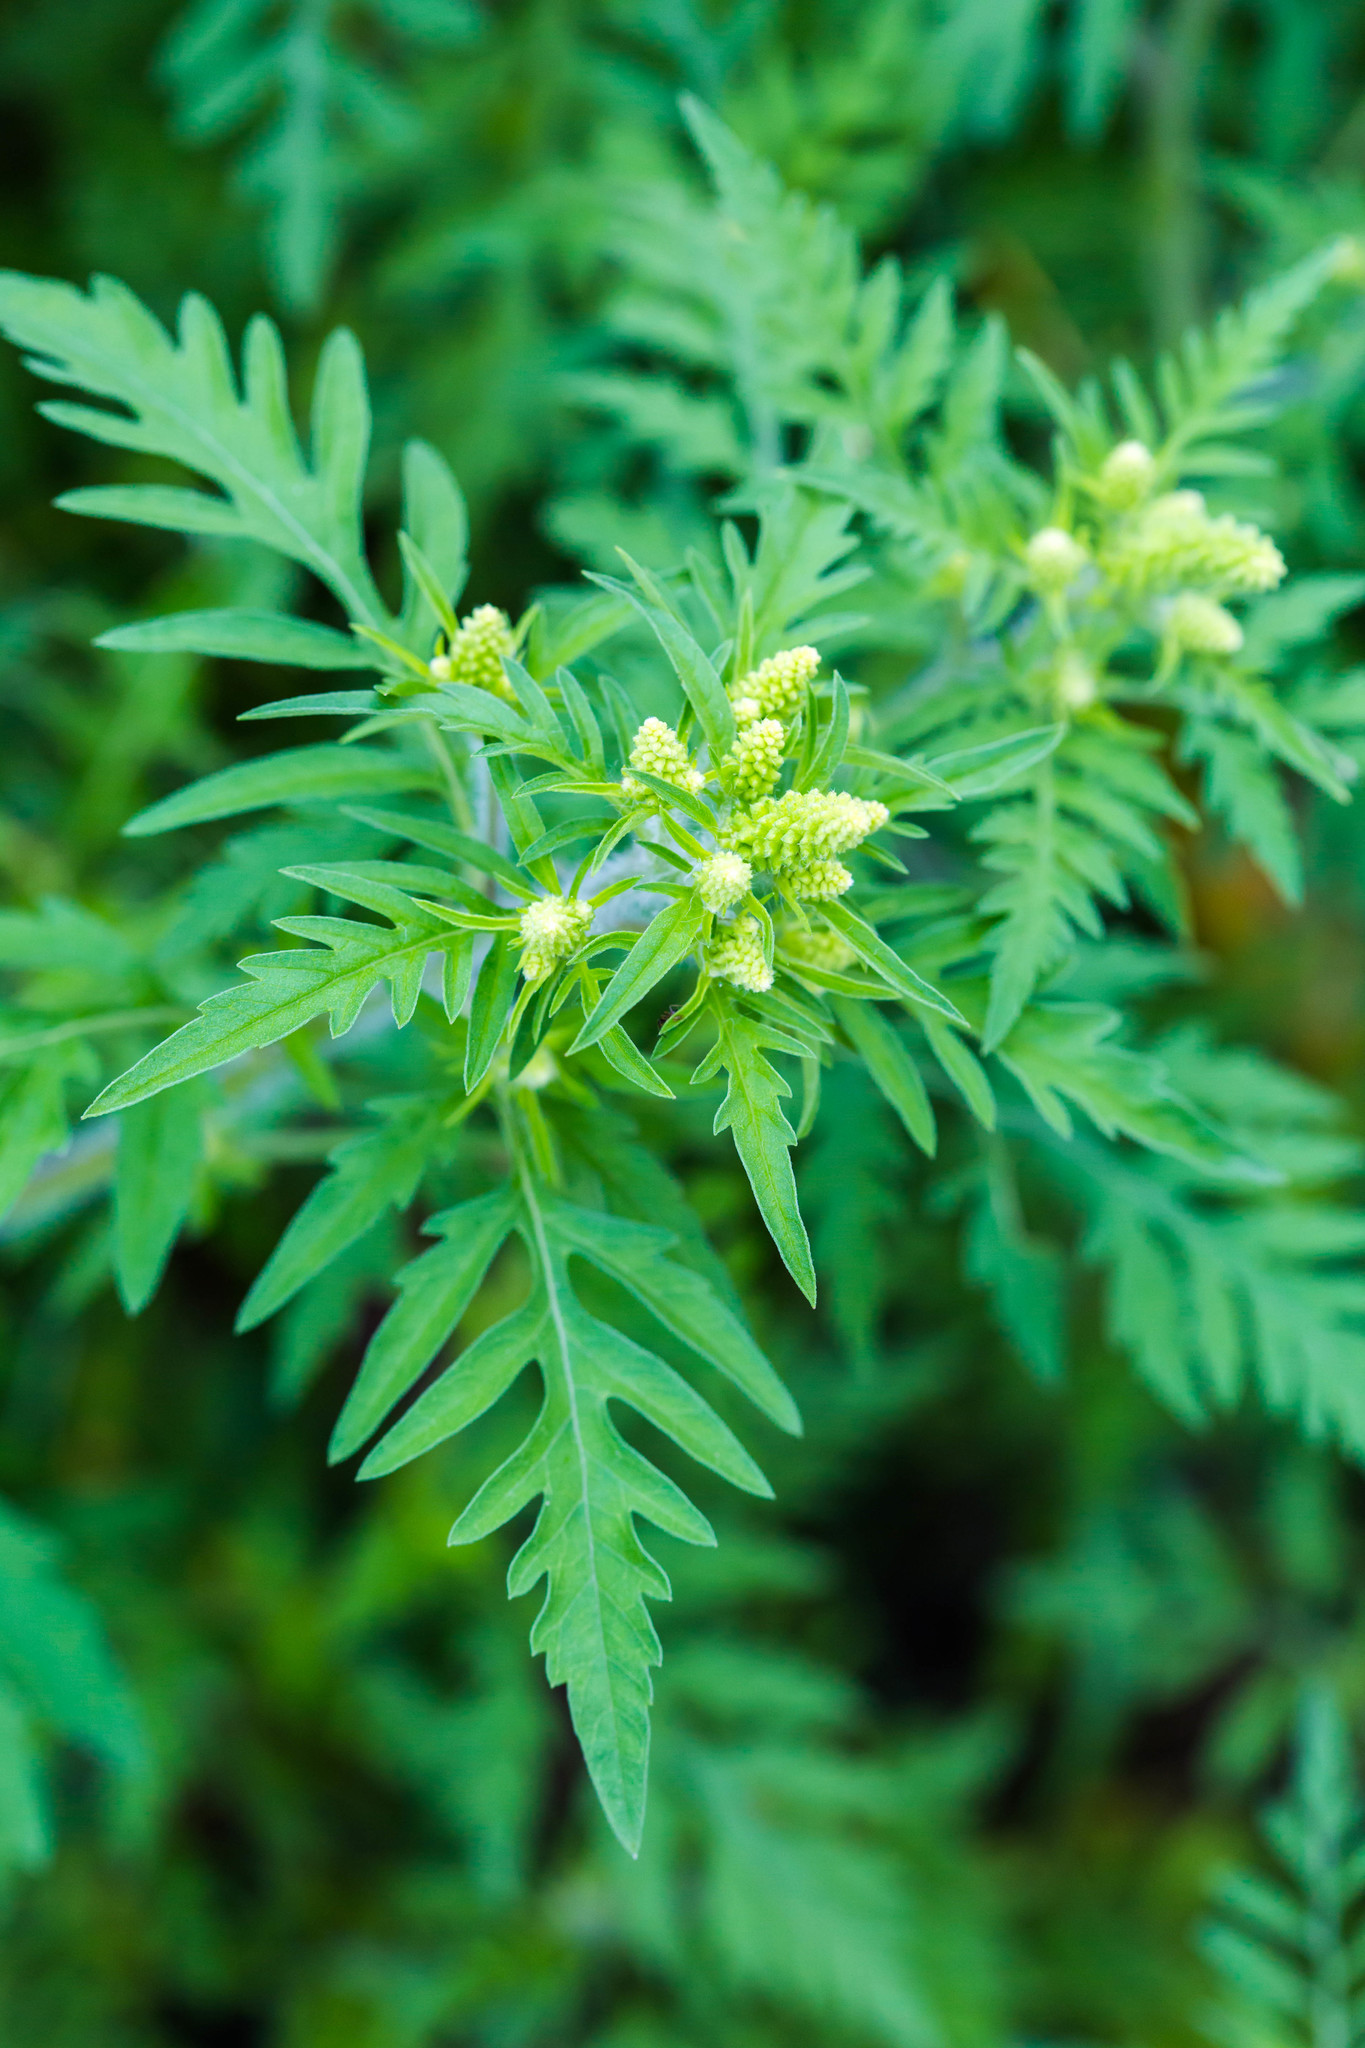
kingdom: Plantae
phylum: Tracheophyta
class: Magnoliopsida
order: Asterales
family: Asteraceae
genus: Ambrosia
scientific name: Ambrosia artemisiifolia
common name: Annual ragweed
